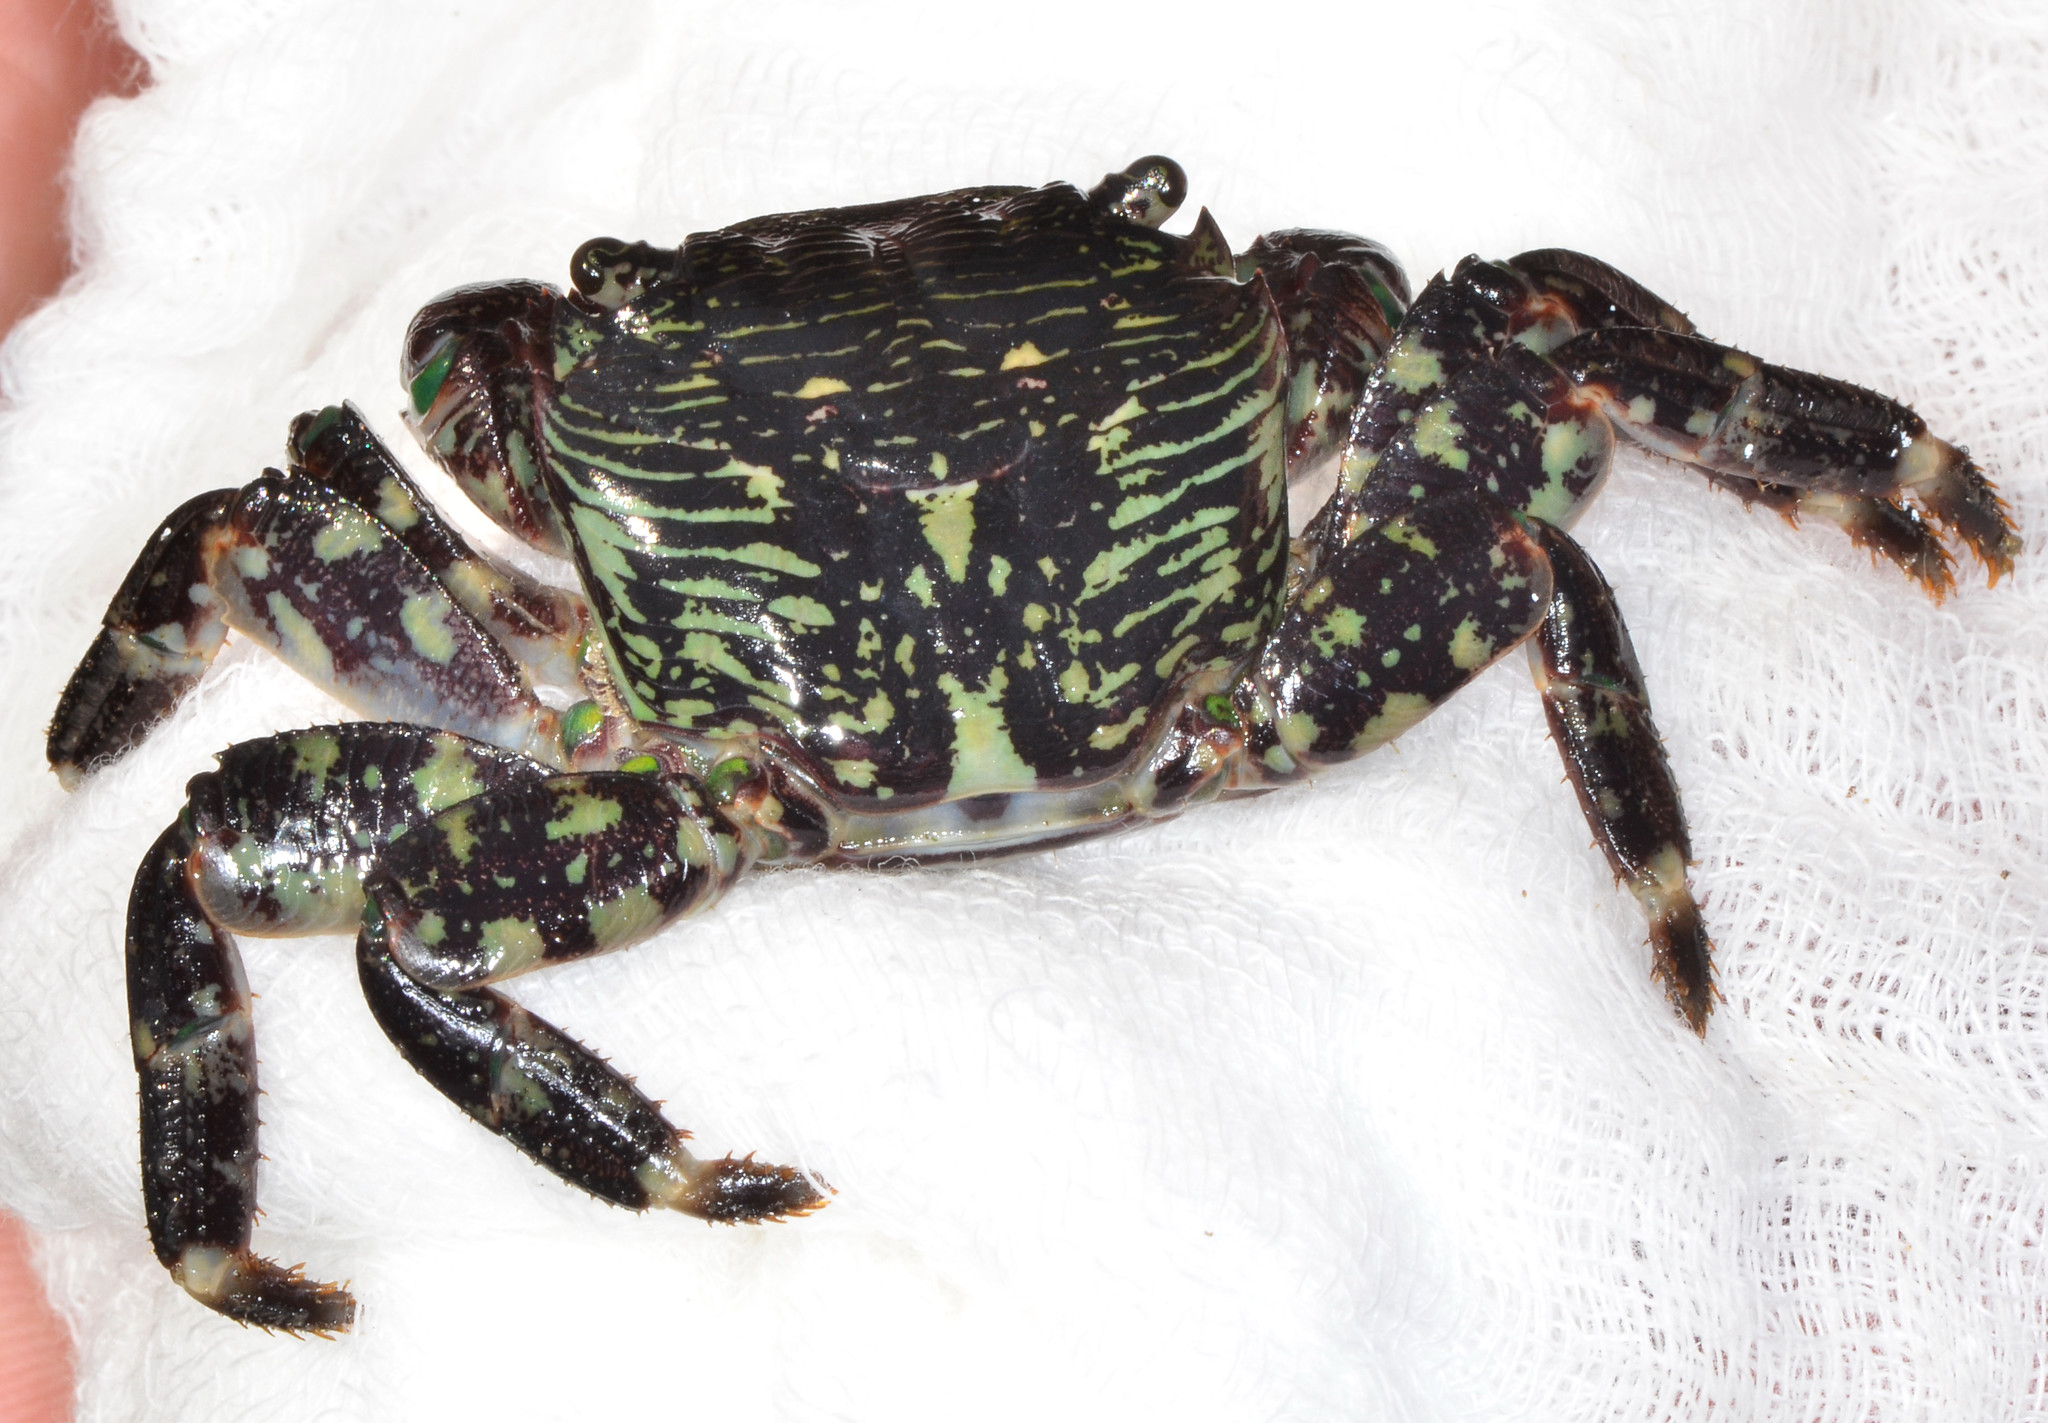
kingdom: Animalia
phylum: Arthropoda
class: Malacostraca
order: Decapoda
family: Grapsidae
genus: Pachygrapsus
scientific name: Pachygrapsus crassipes
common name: Striped shore crab
